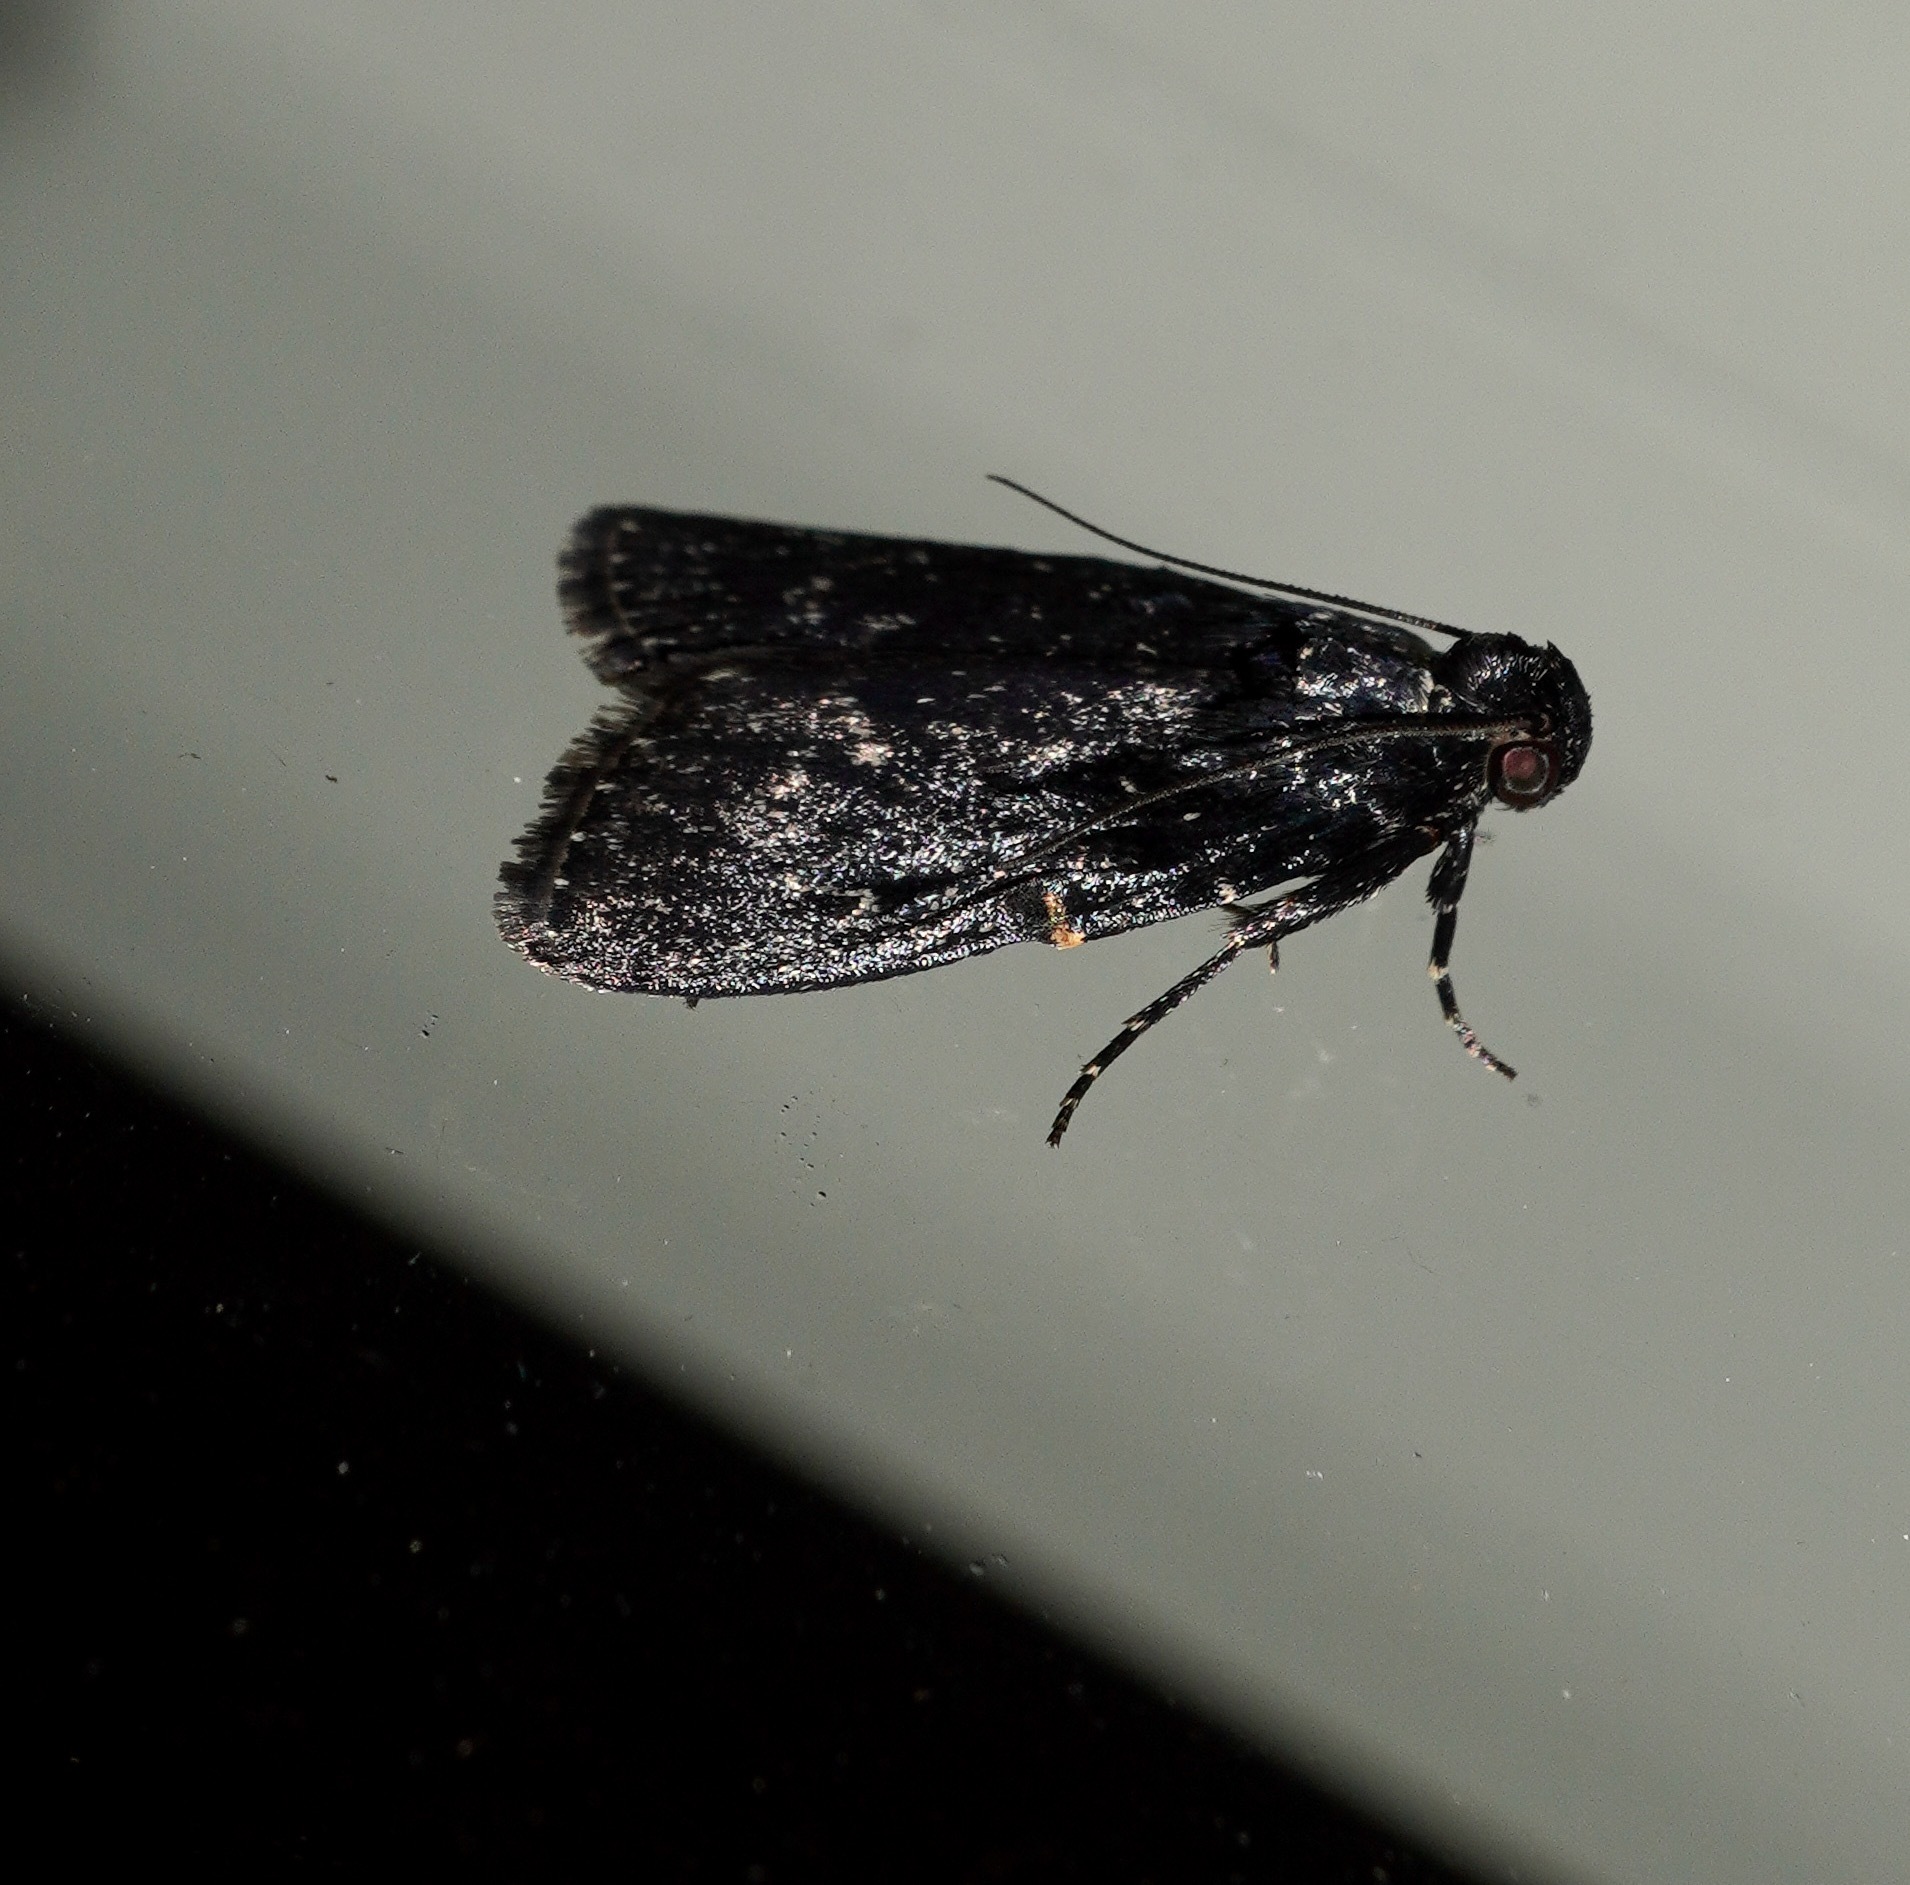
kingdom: Animalia
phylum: Arthropoda
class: Insecta
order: Lepidoptera
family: Pyralidae
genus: Stericta
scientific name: Stericta carbonalis
